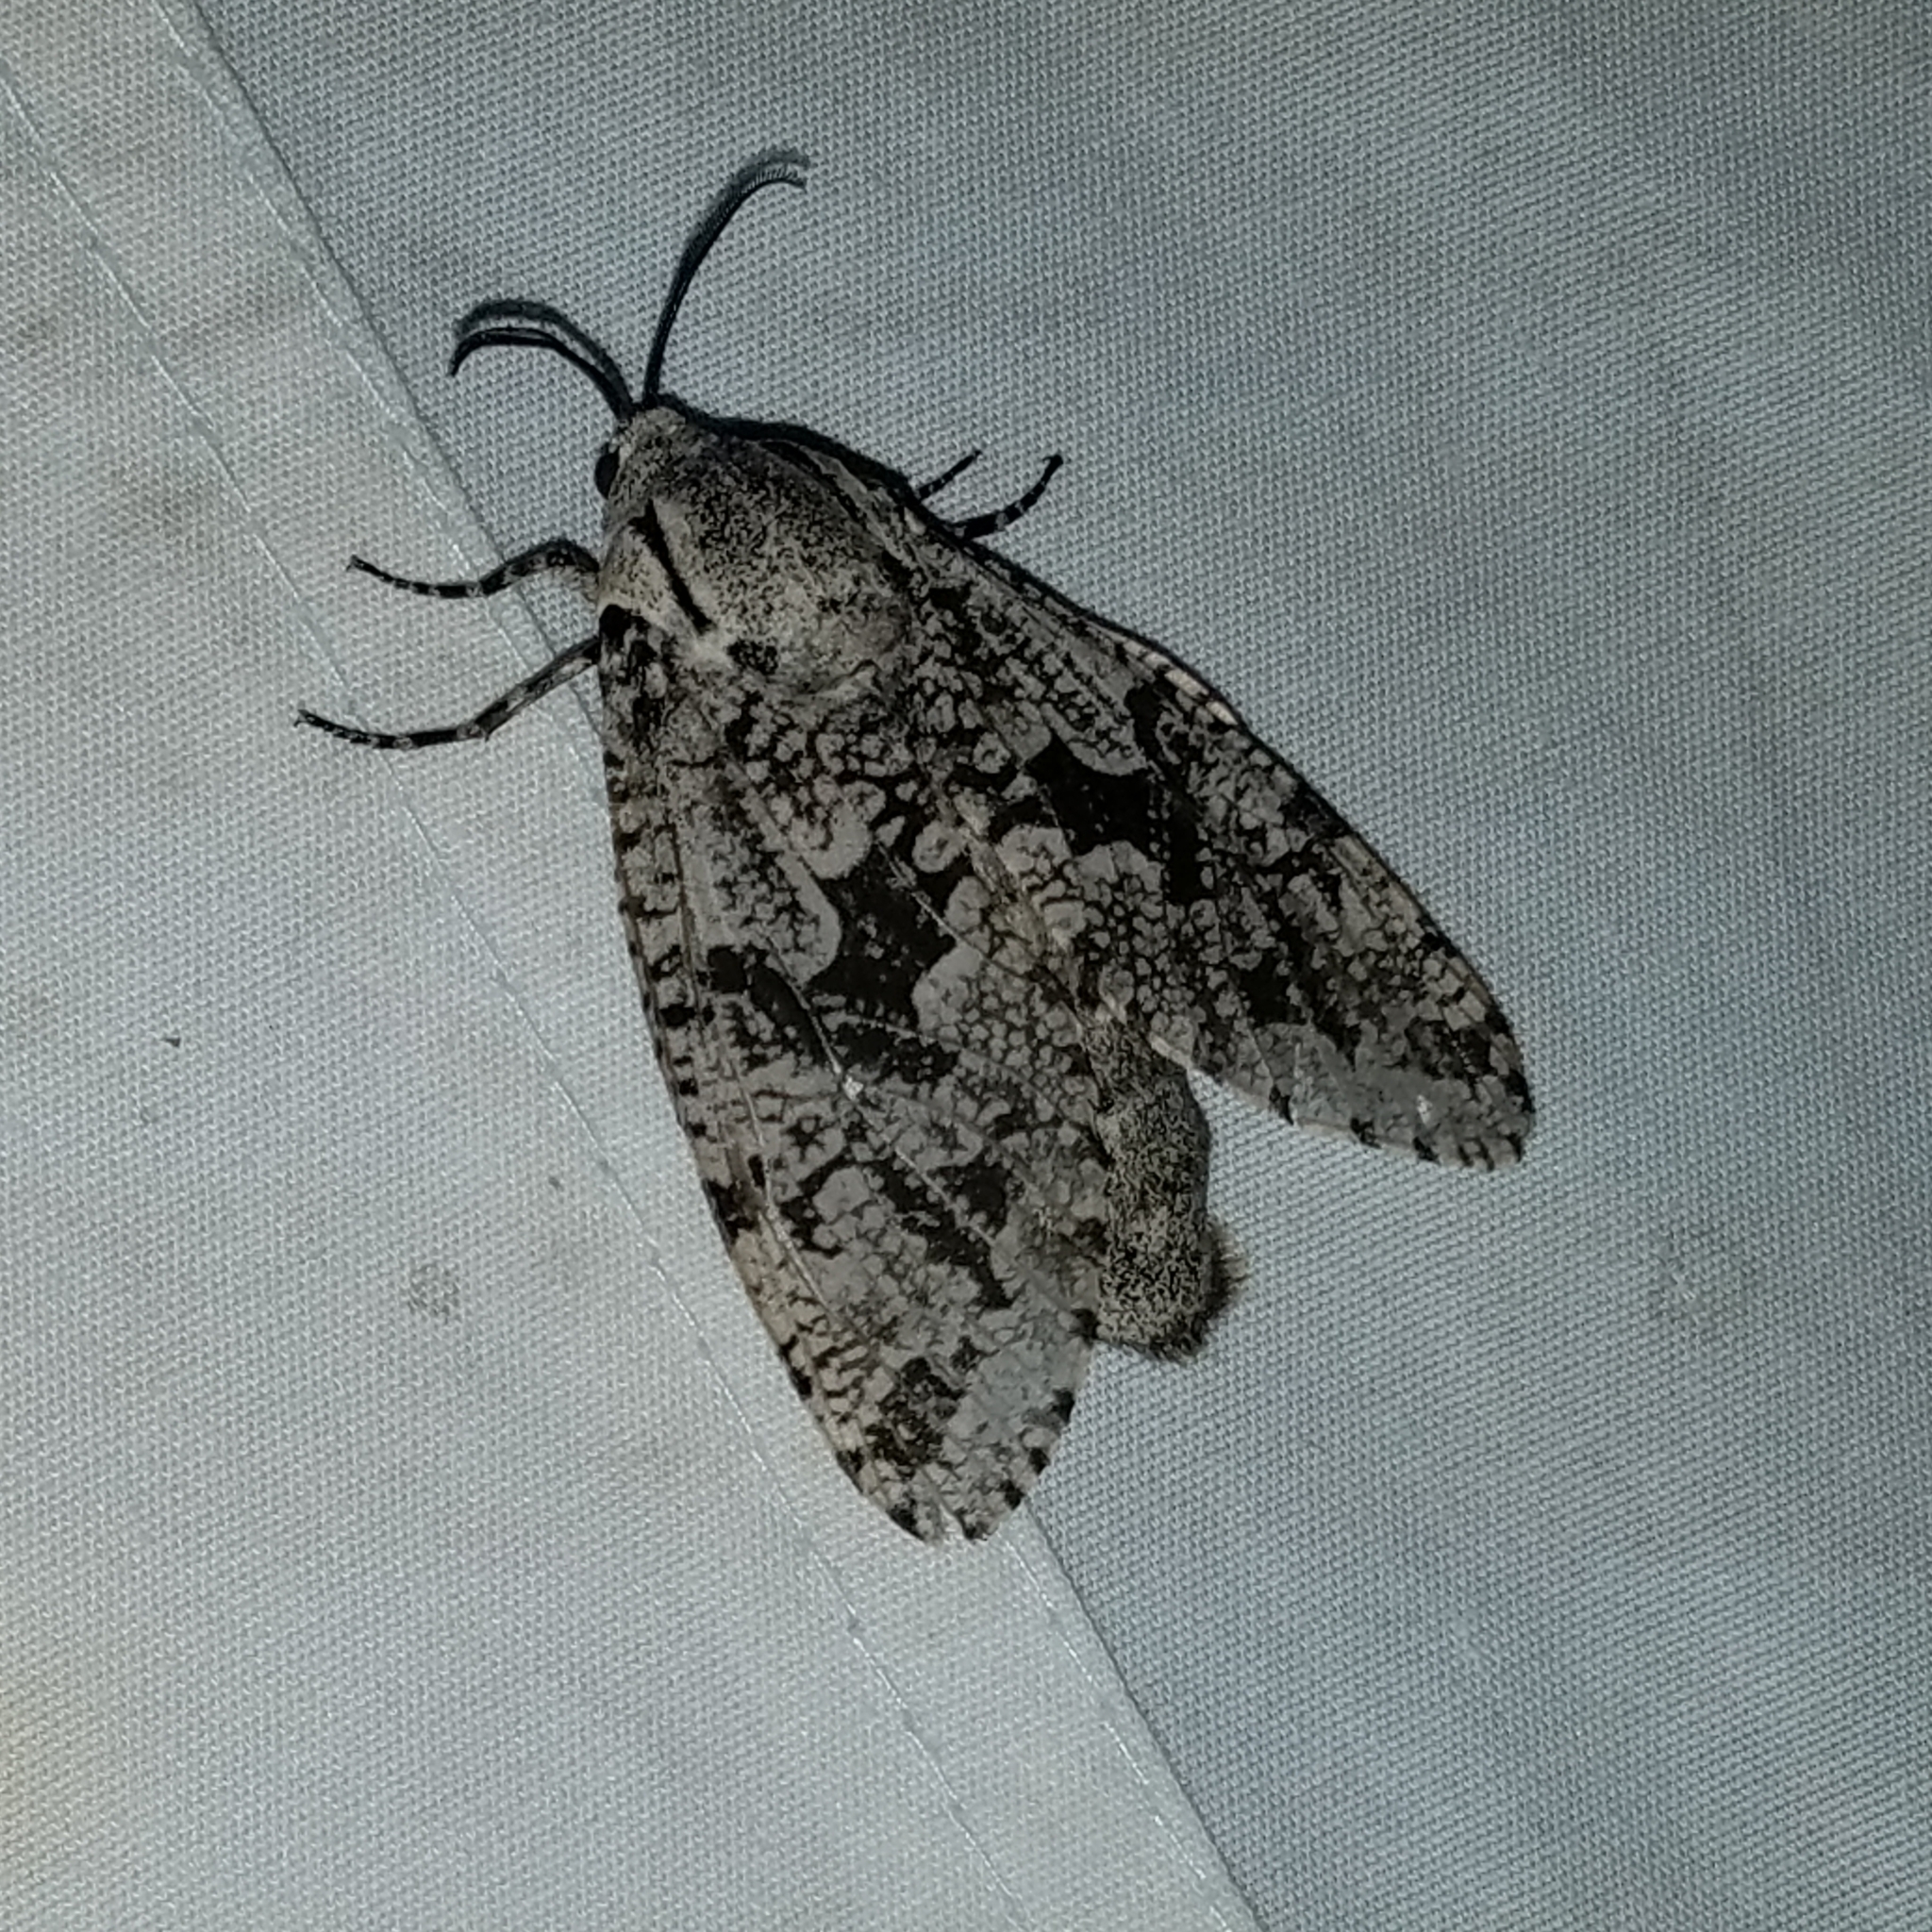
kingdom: Animalia
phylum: Arthropoda
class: Insecta
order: Lepidoptera
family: Cossidae
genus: Prionoxystus
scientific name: Prionoxystus robiniae
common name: Carpenterworm
